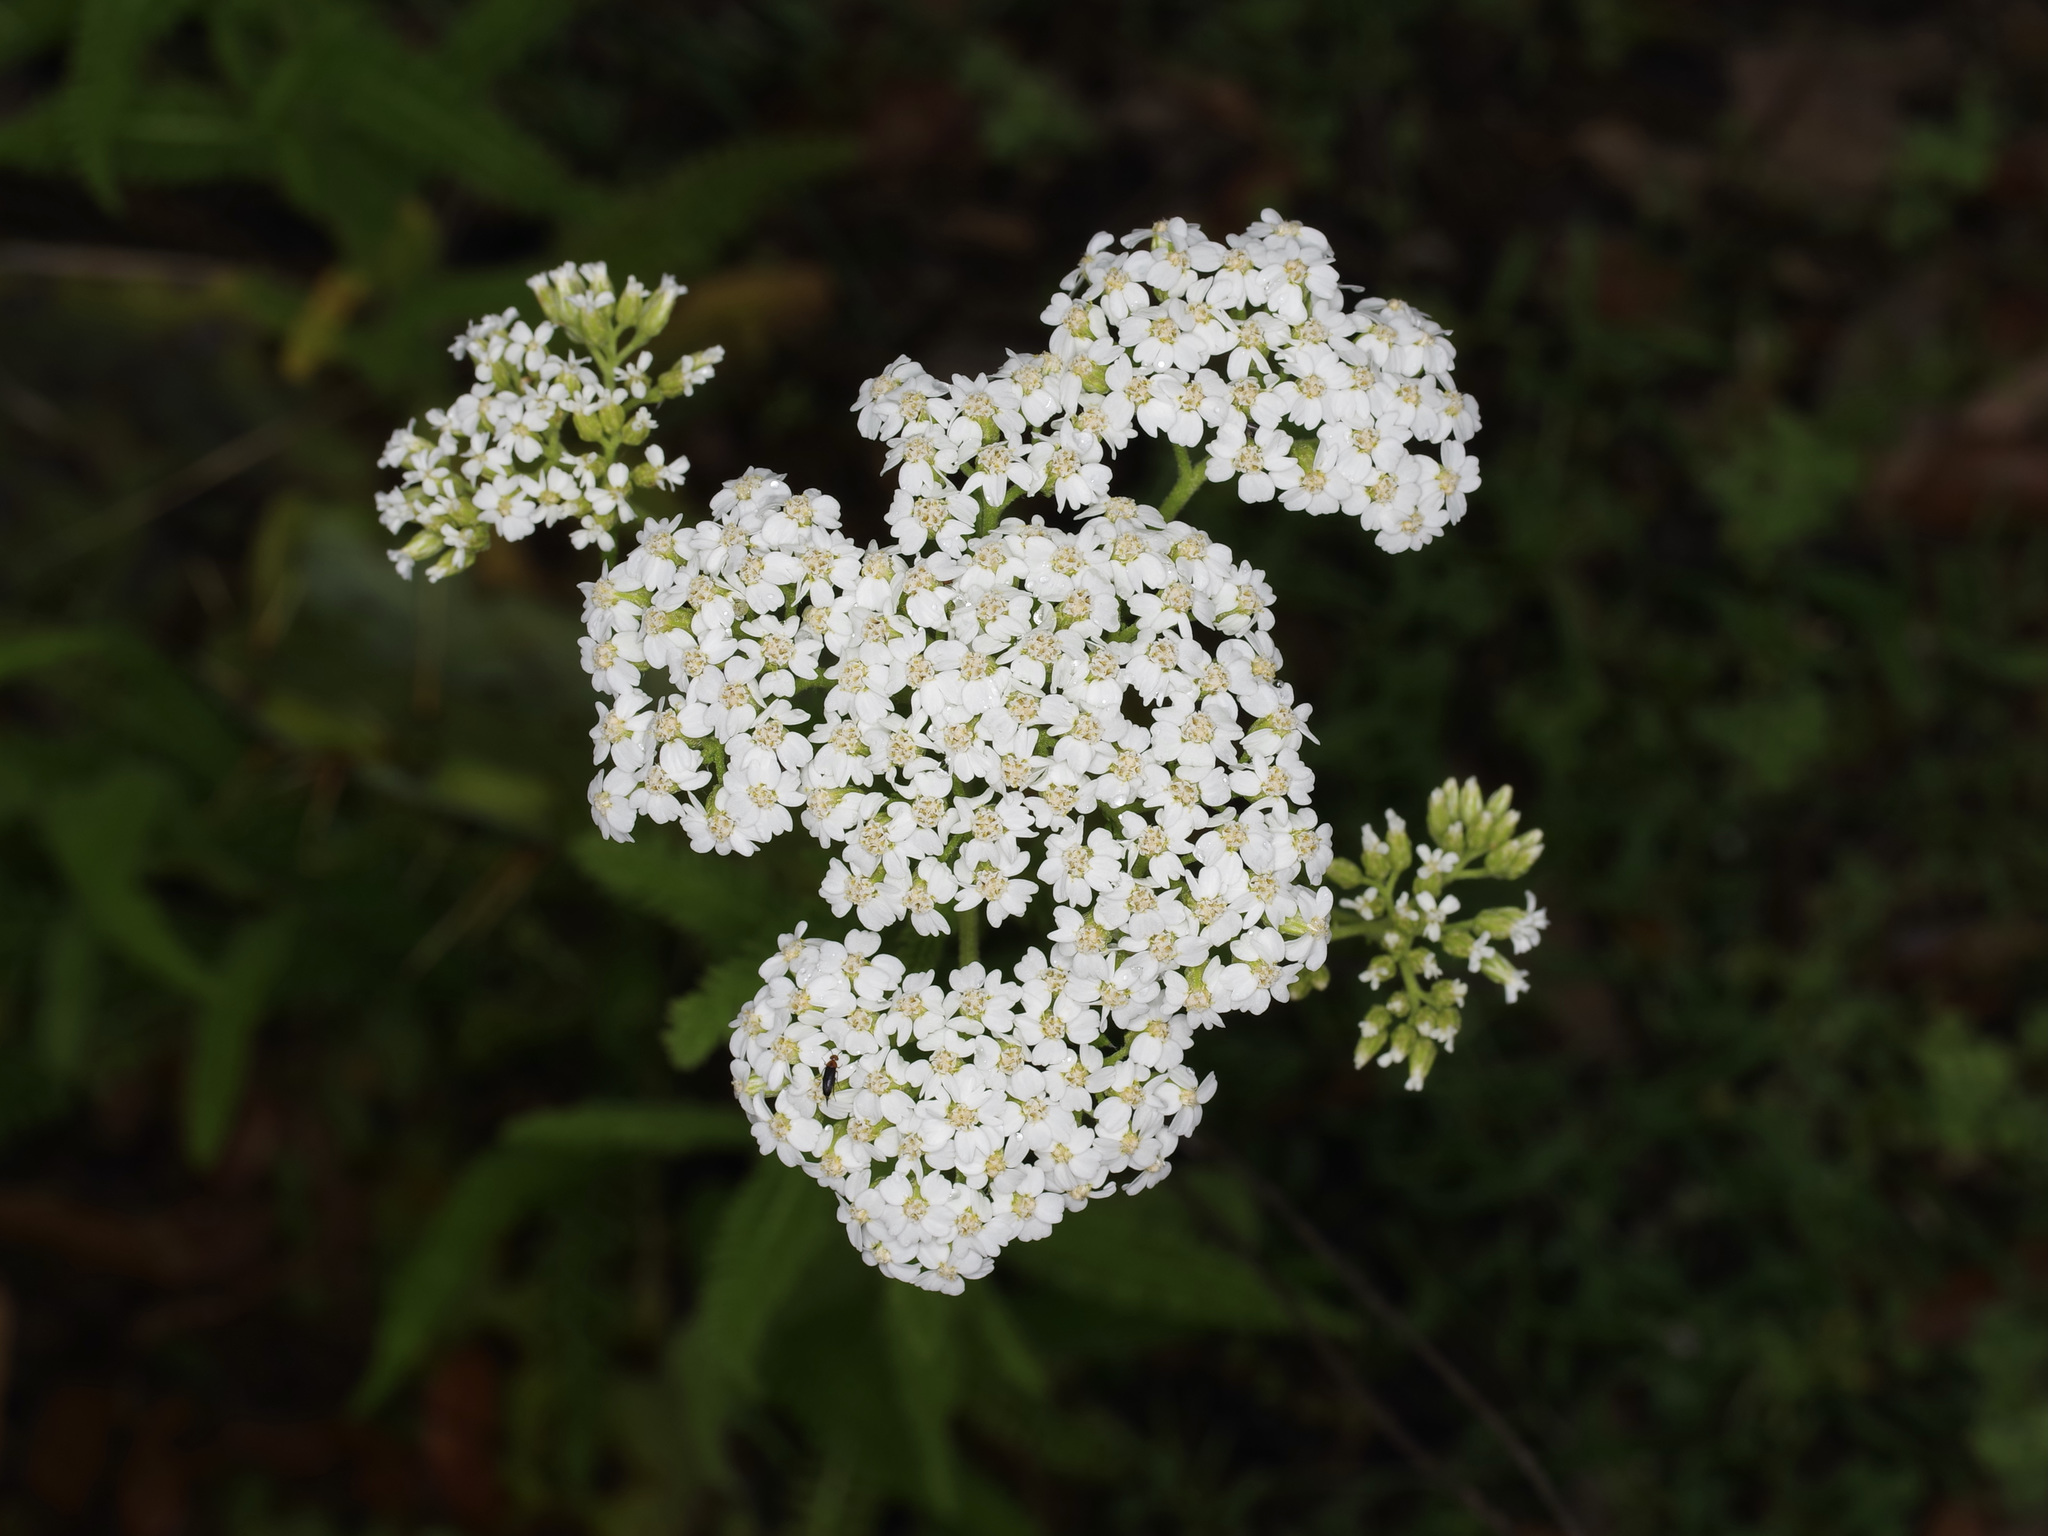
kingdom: Plantae
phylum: Tracheophyta
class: Magnoliopsida
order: Asterales
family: Asteraceae
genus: Achillea
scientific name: Achillea millefolium
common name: Yarrow
